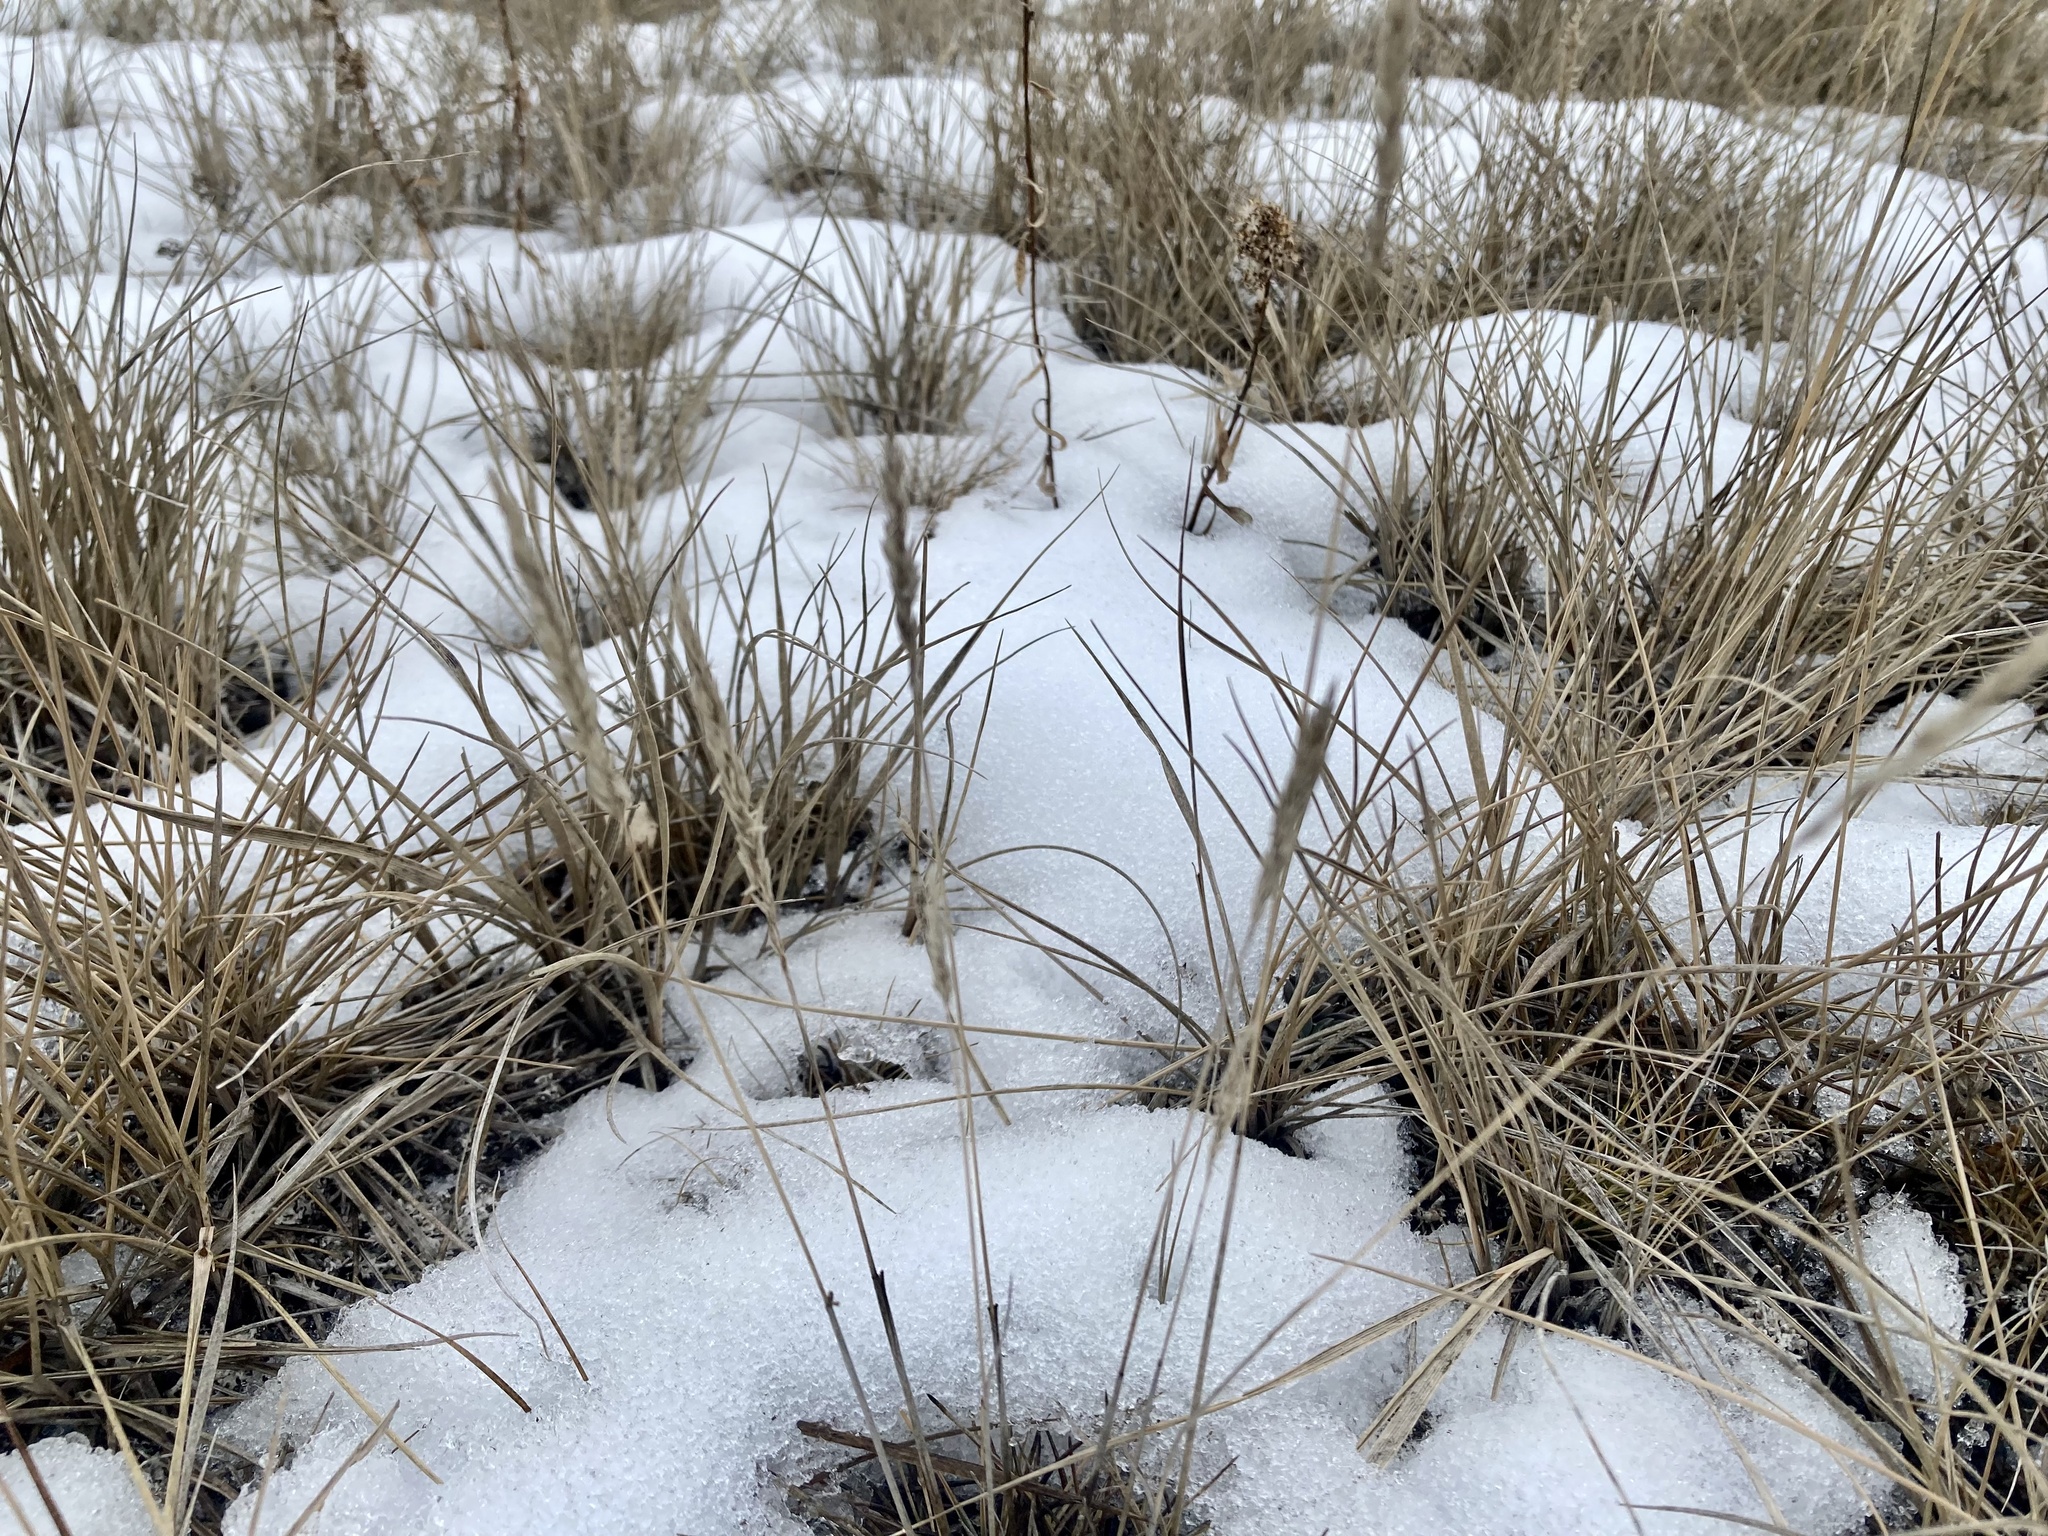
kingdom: Plantae
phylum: Tracheophyta
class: Liliopsida
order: Poales
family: Poaceae
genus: Koeleria
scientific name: Koeleria spicata
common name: Mountain trisetum
